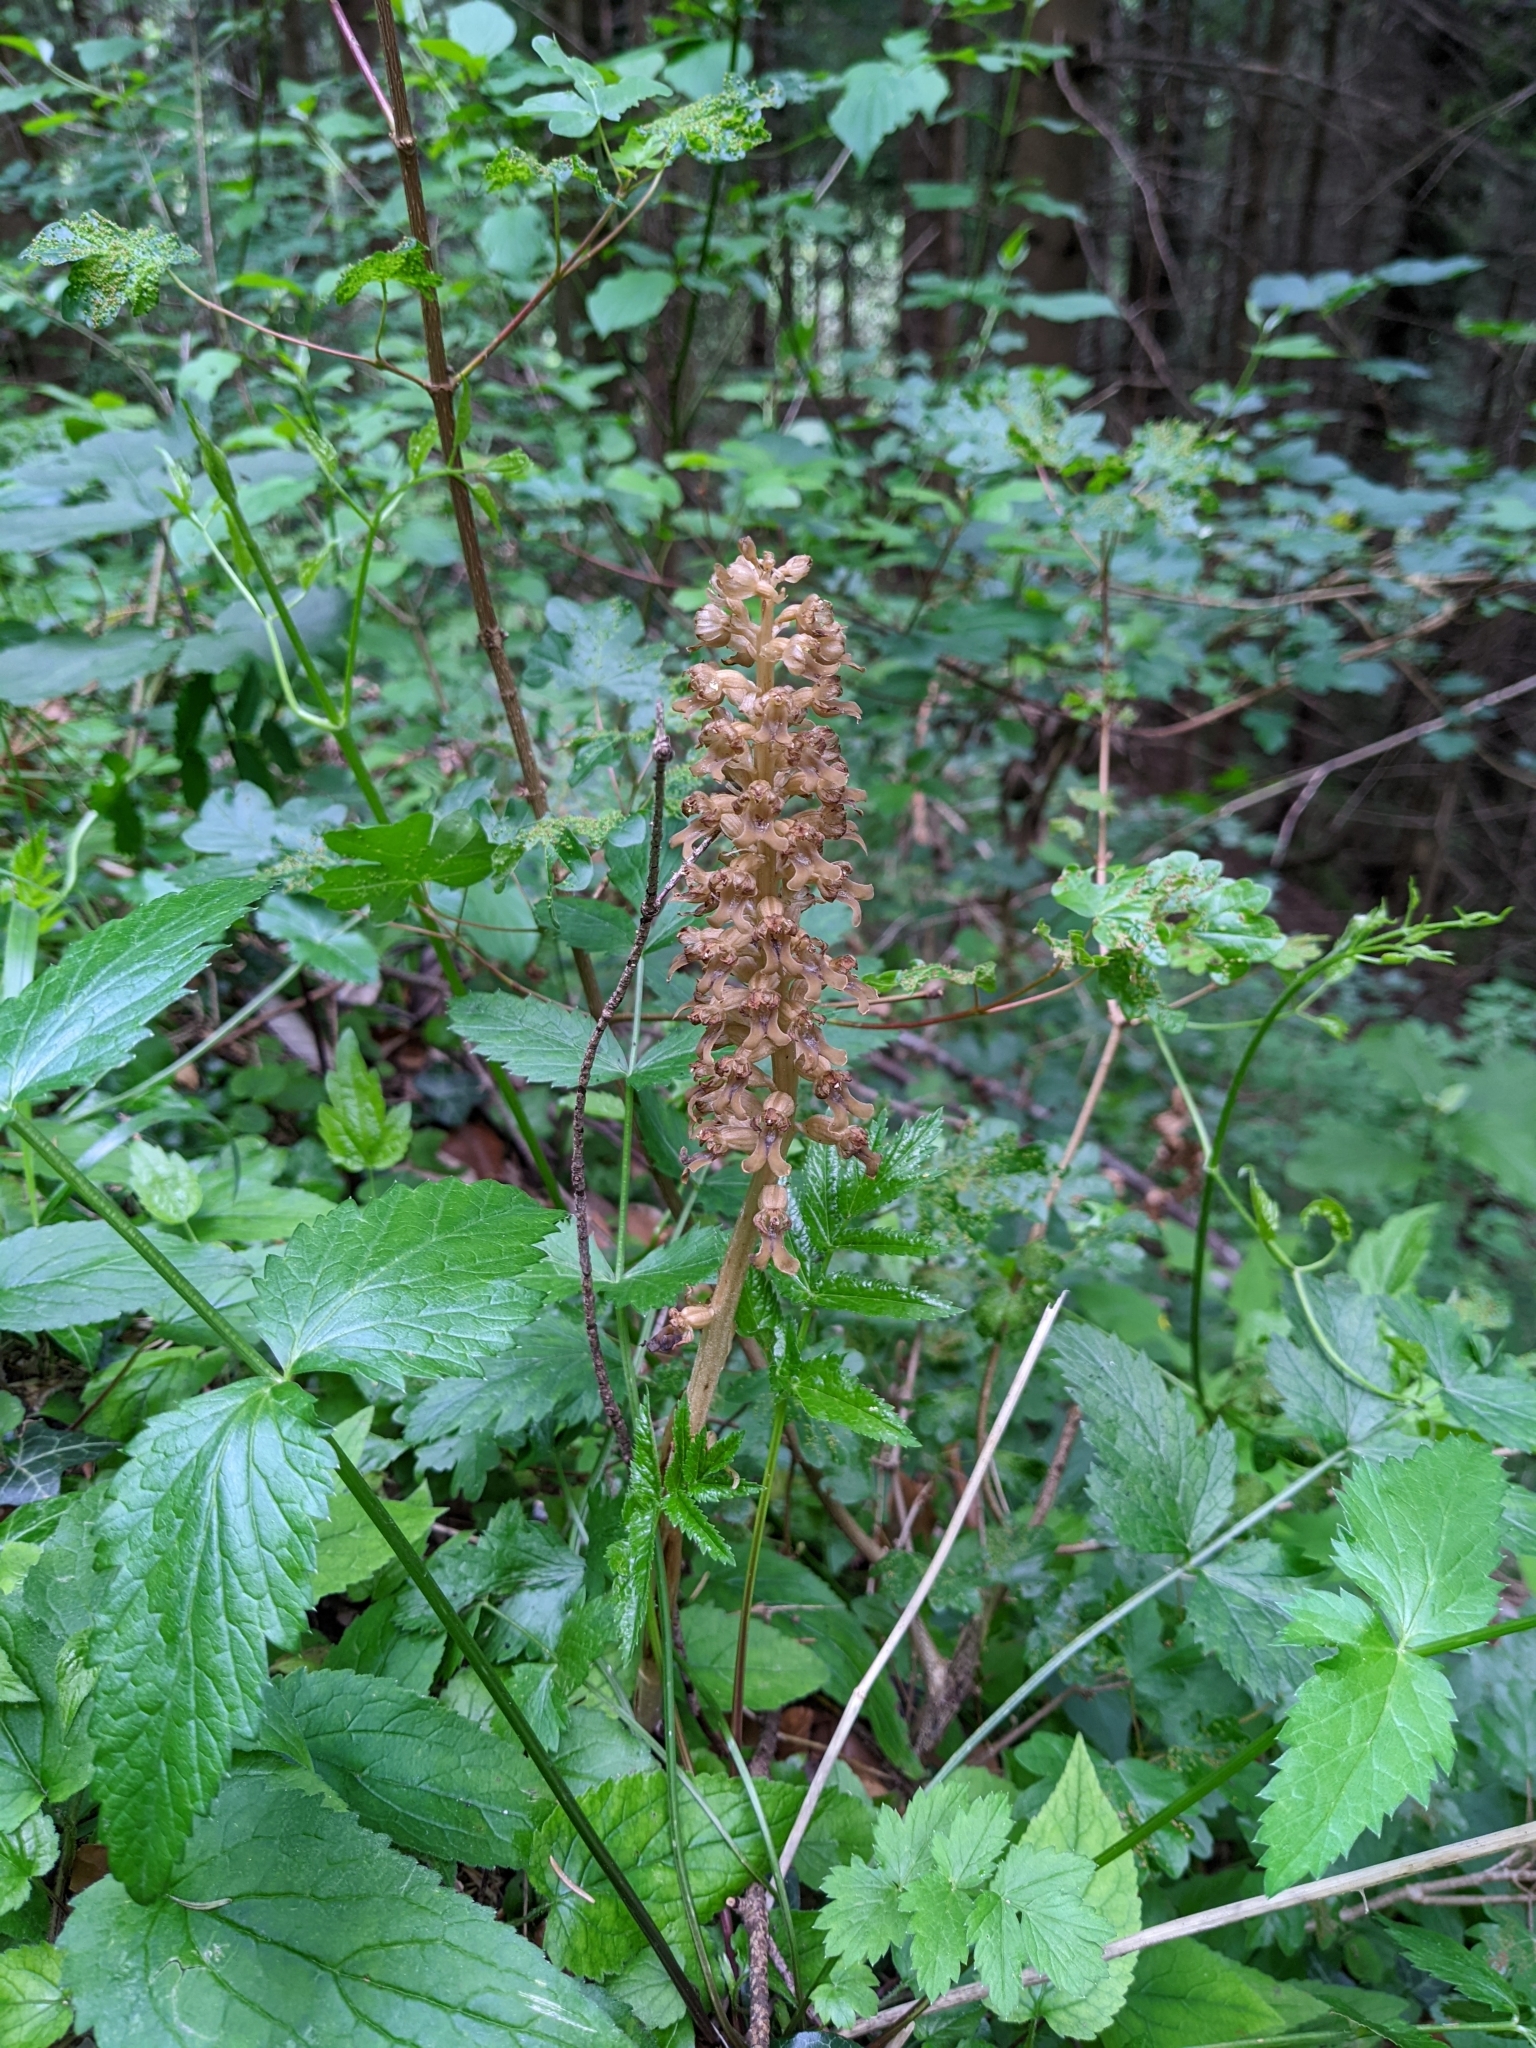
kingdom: Plantae
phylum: Tracheophyta
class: Liliopsida
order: Asparagales
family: Orchidaceae
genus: Neottia
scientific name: Neottia nidus-avis
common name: Bird's-nest orchid
